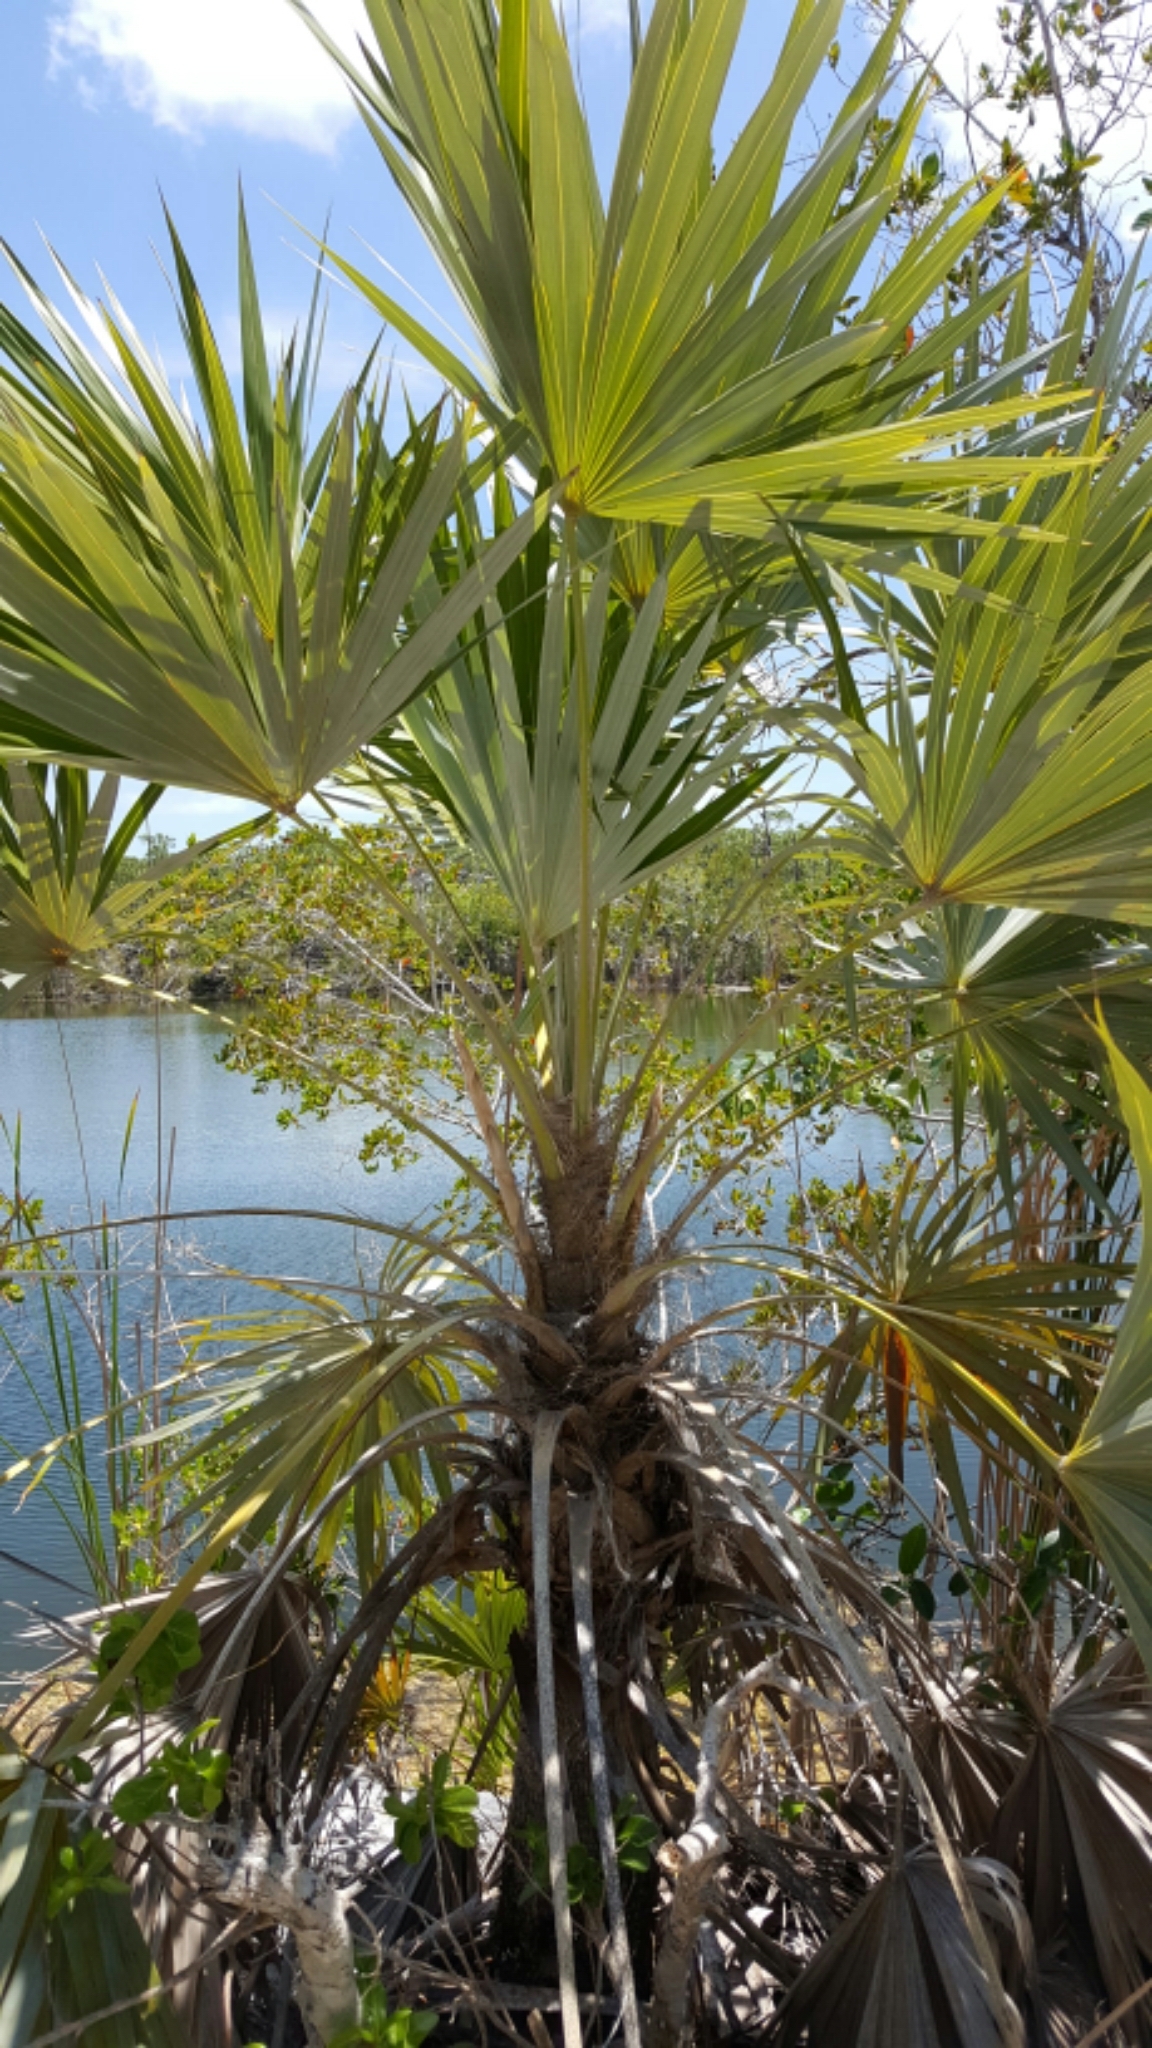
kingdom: Plantae
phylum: Tracheophyta
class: Liliopsida
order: Arecales
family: Arecaceae
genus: Leucothrinax
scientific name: Leucothrinax morrisii
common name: Key palm
